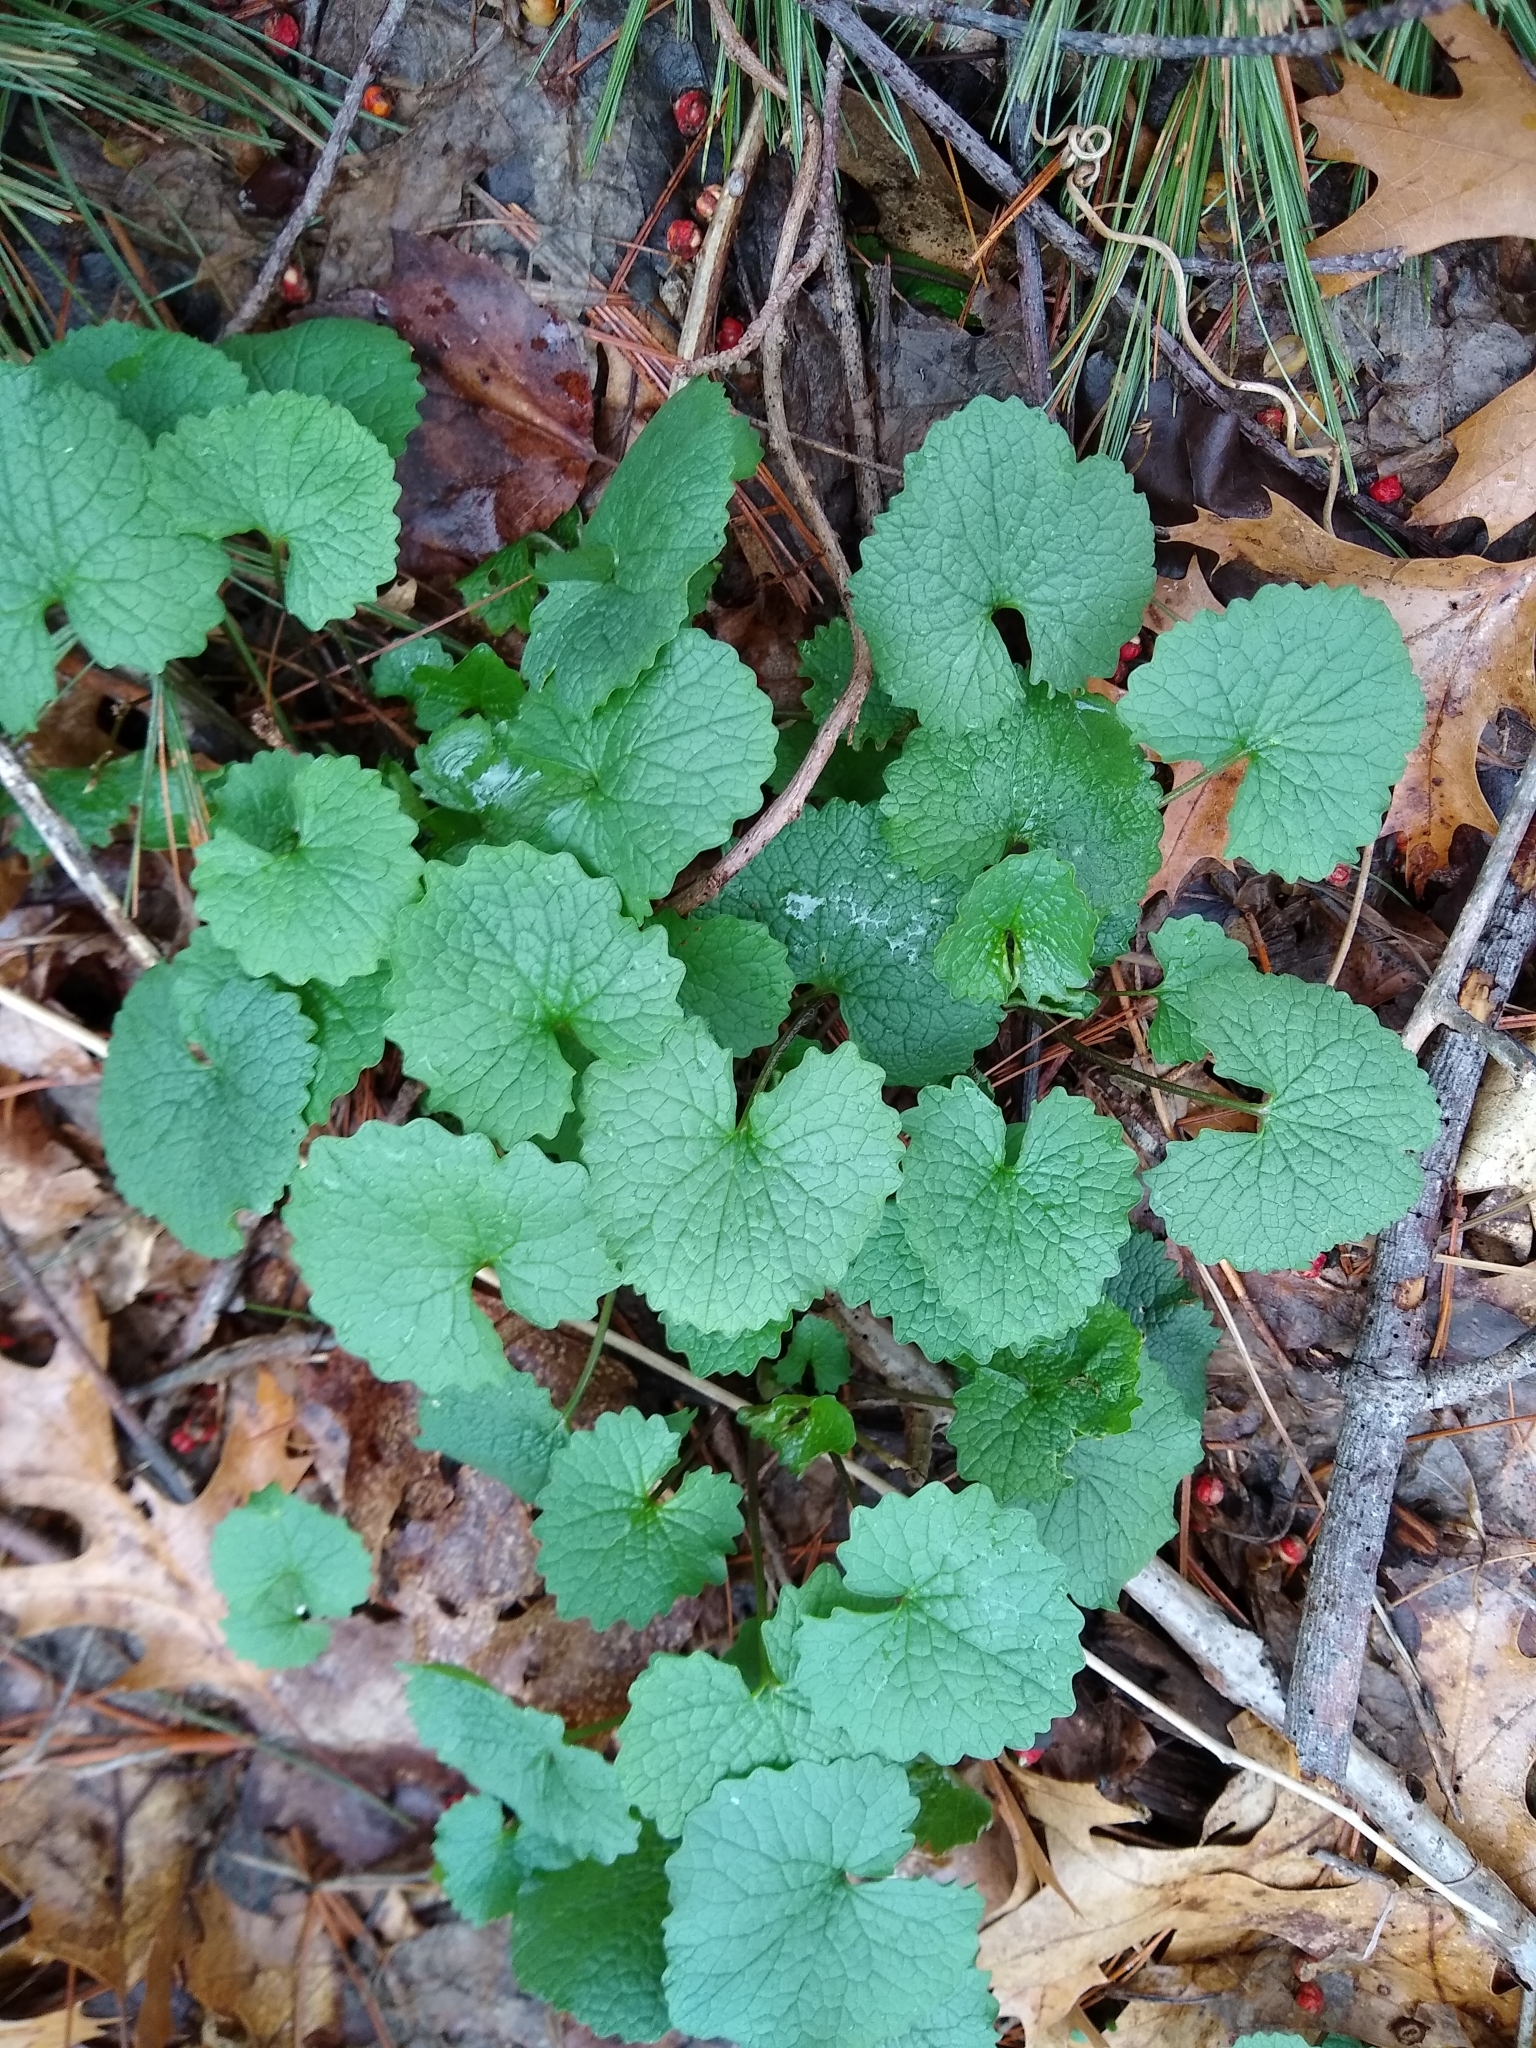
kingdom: Plantae
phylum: Tracheophyta
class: Magnoliopsida
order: Brassicales
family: Brassicaceae
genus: Alliaria
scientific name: Alliaria petiolata
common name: Garlic mustard
